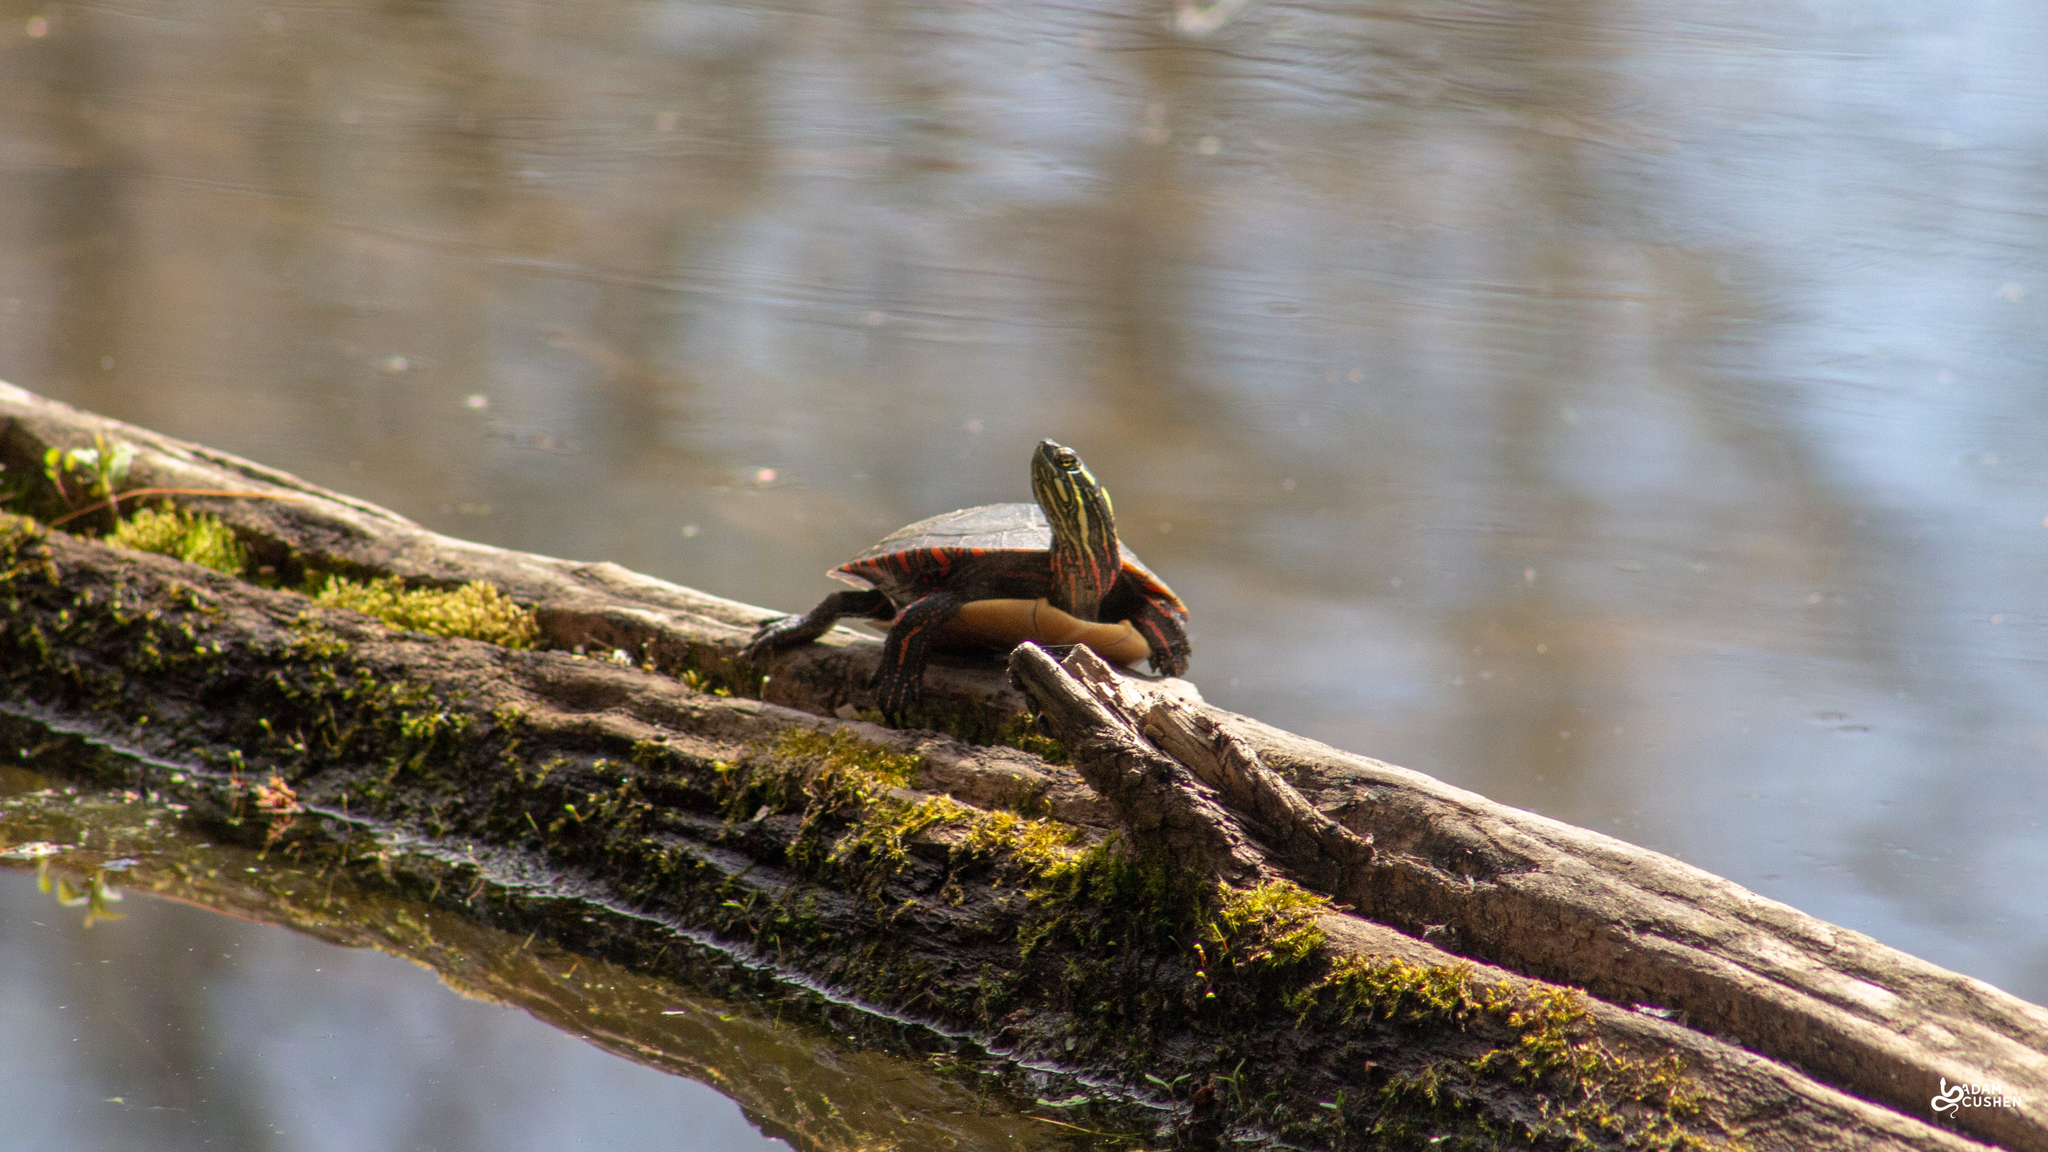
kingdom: Animalia
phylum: Chordata
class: Testudines
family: Emydidae
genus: Chrysemys
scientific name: Chrysemys picta
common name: Painted turtle
